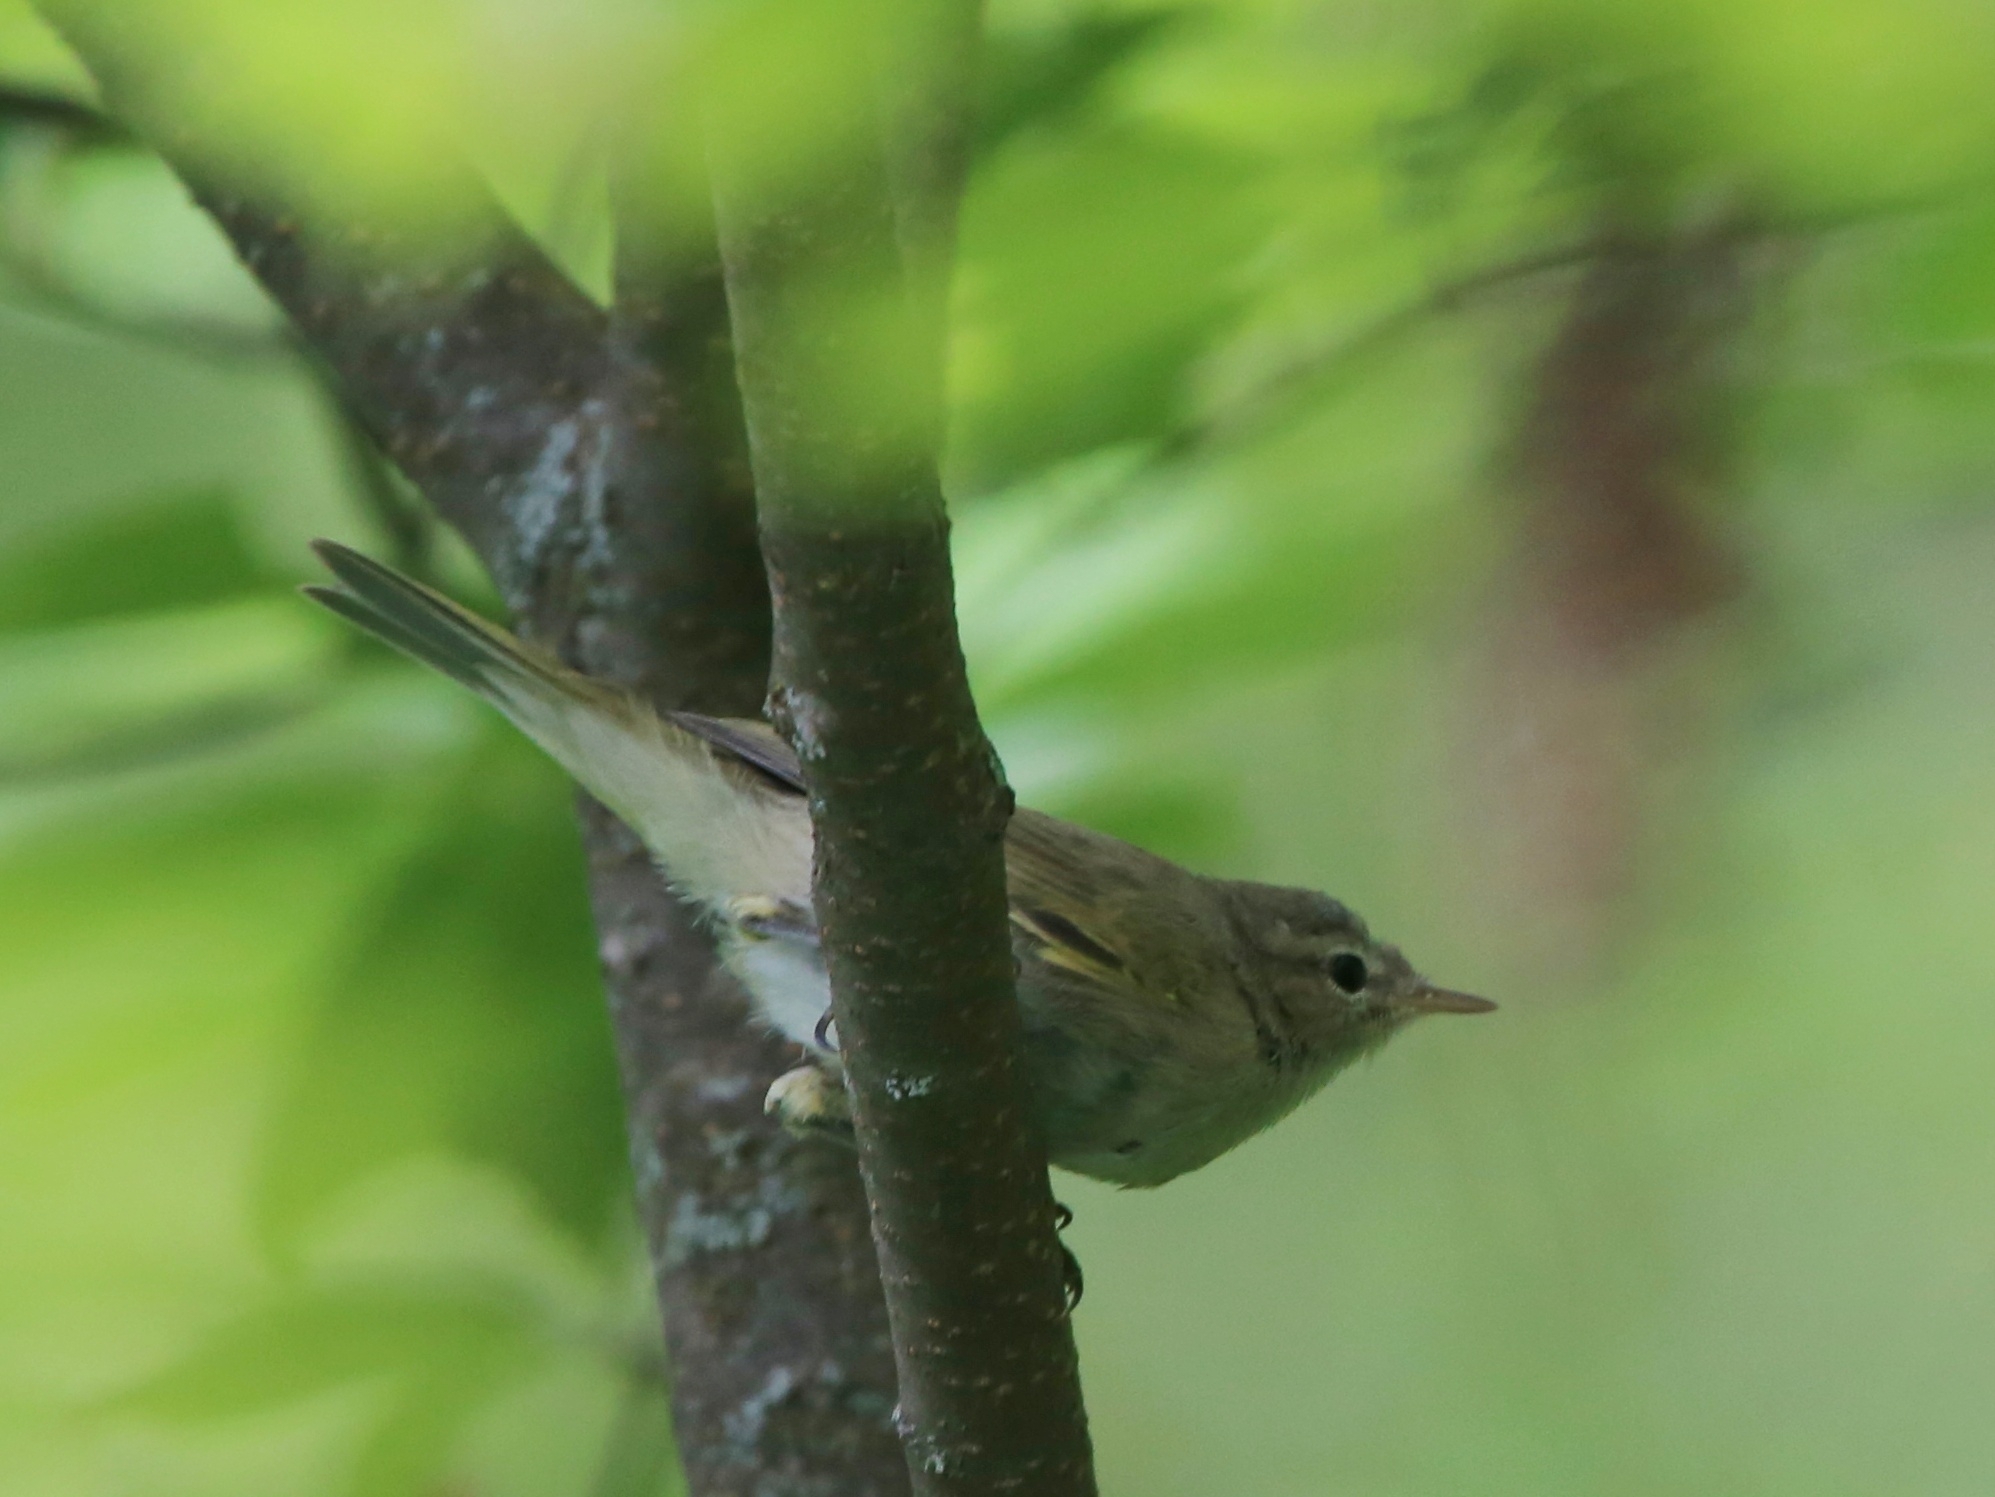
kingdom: Animalia
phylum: Chordata
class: Aves
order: Passeriformes
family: Phylloscopidae
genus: Phylloscopus
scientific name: Phylloscopus collybita
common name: Common chiffchaff
